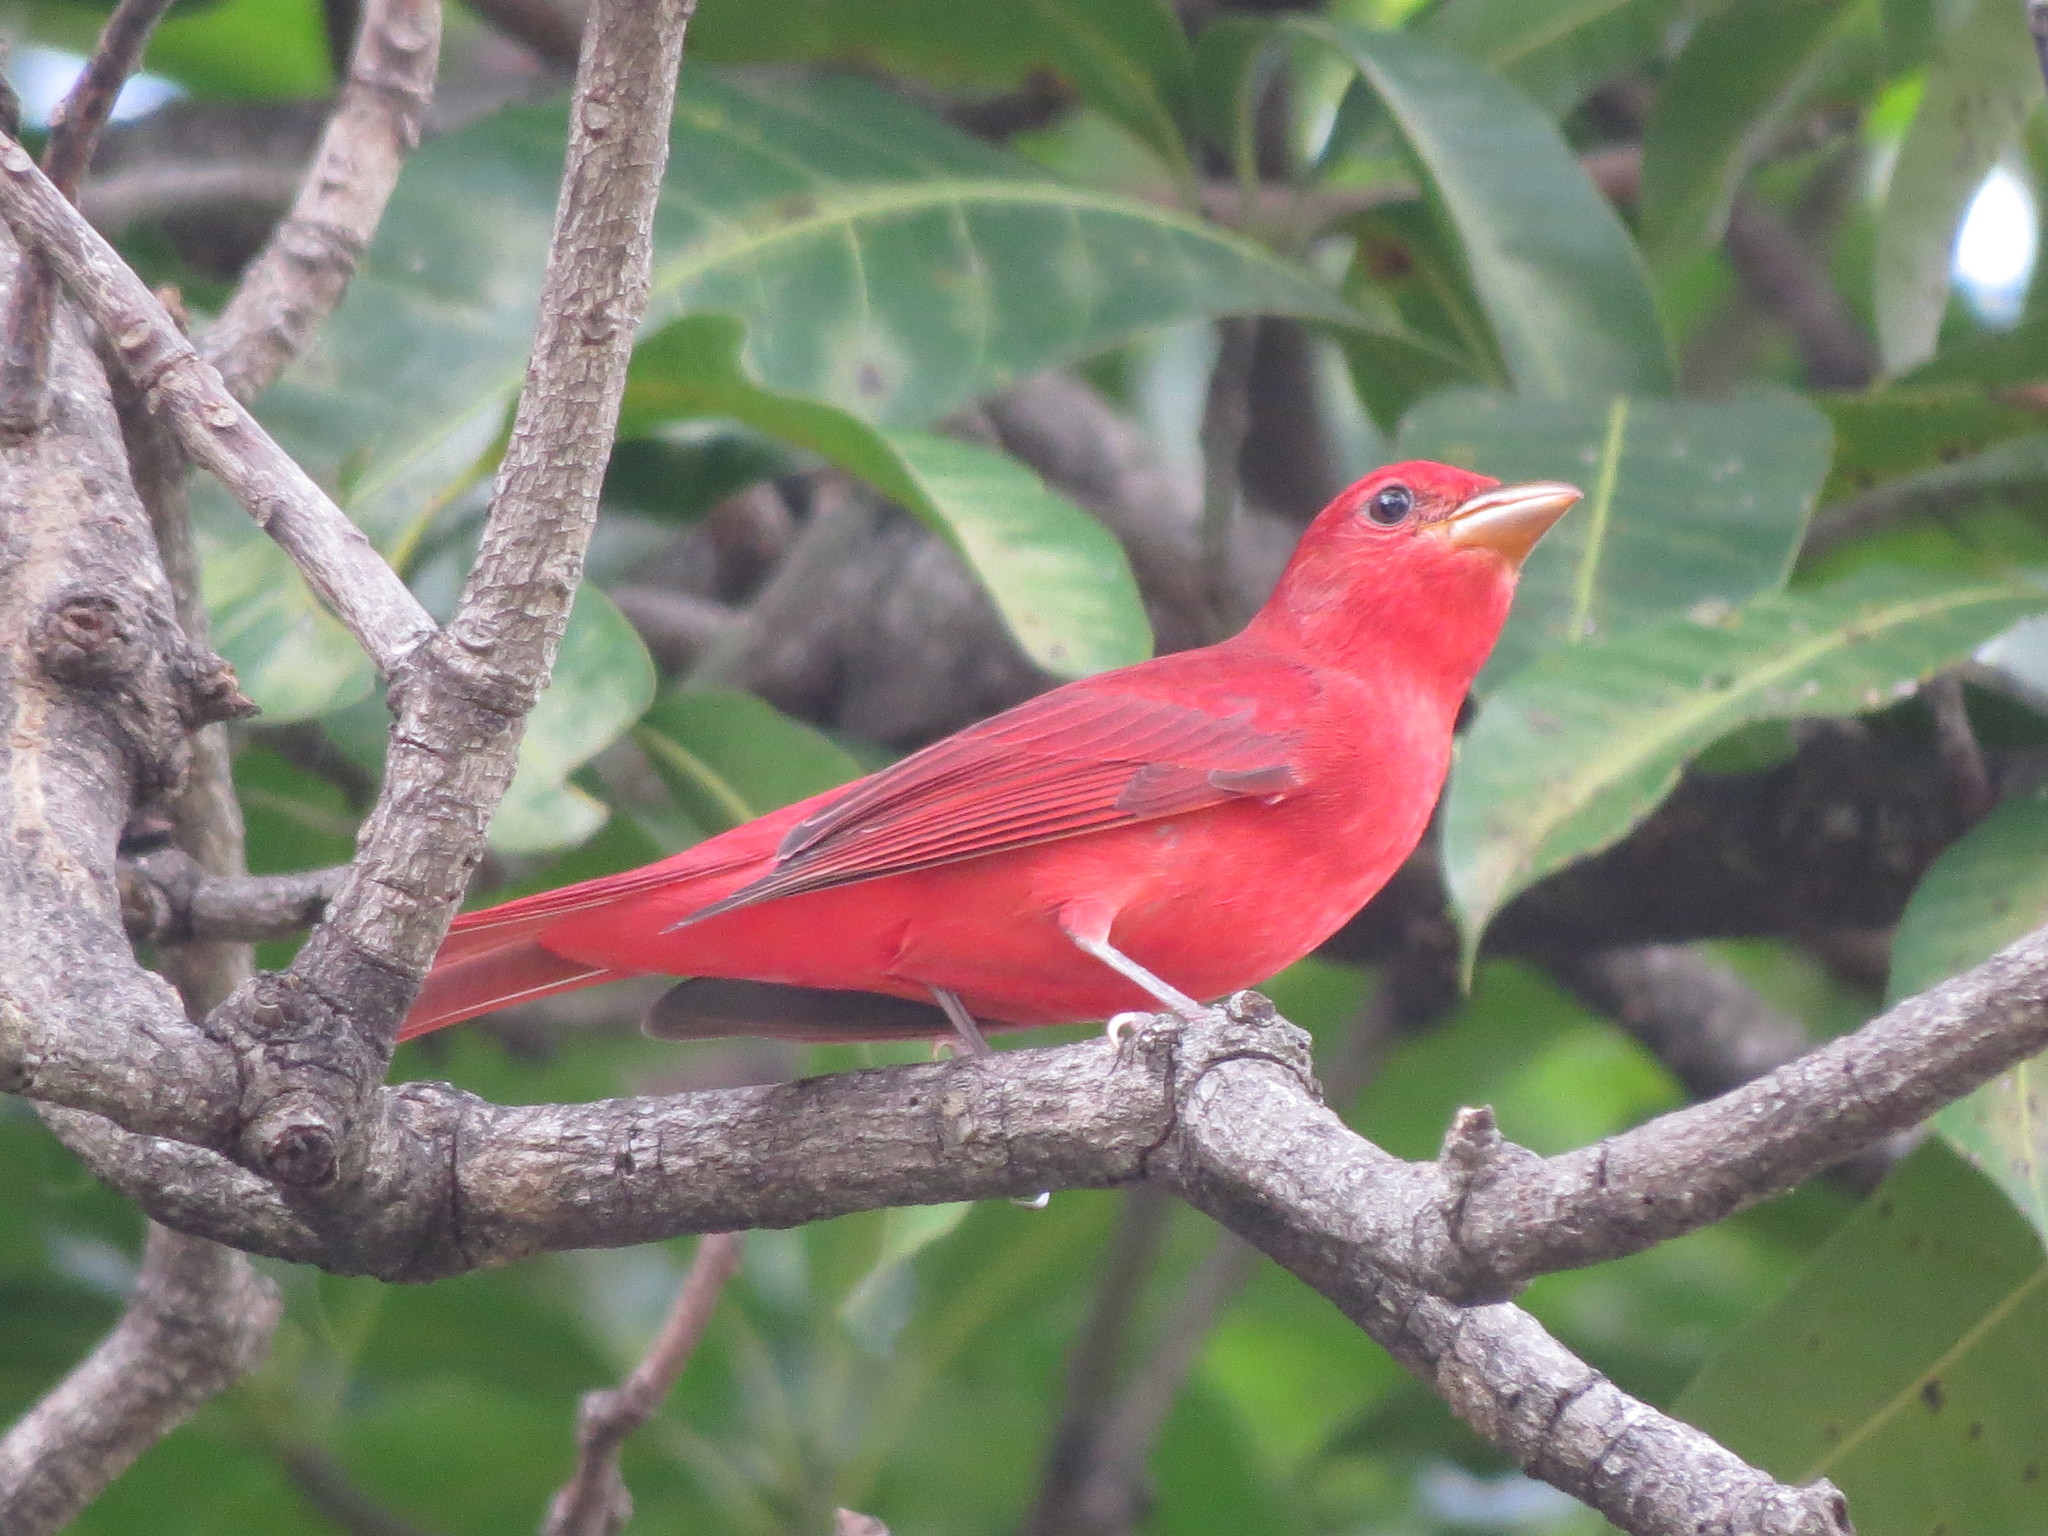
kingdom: Animalia
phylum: Chordata
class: Aves
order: Passeriformes
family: Cardinalidae
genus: Piranga
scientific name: Piranga rubra
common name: Summer tanager
